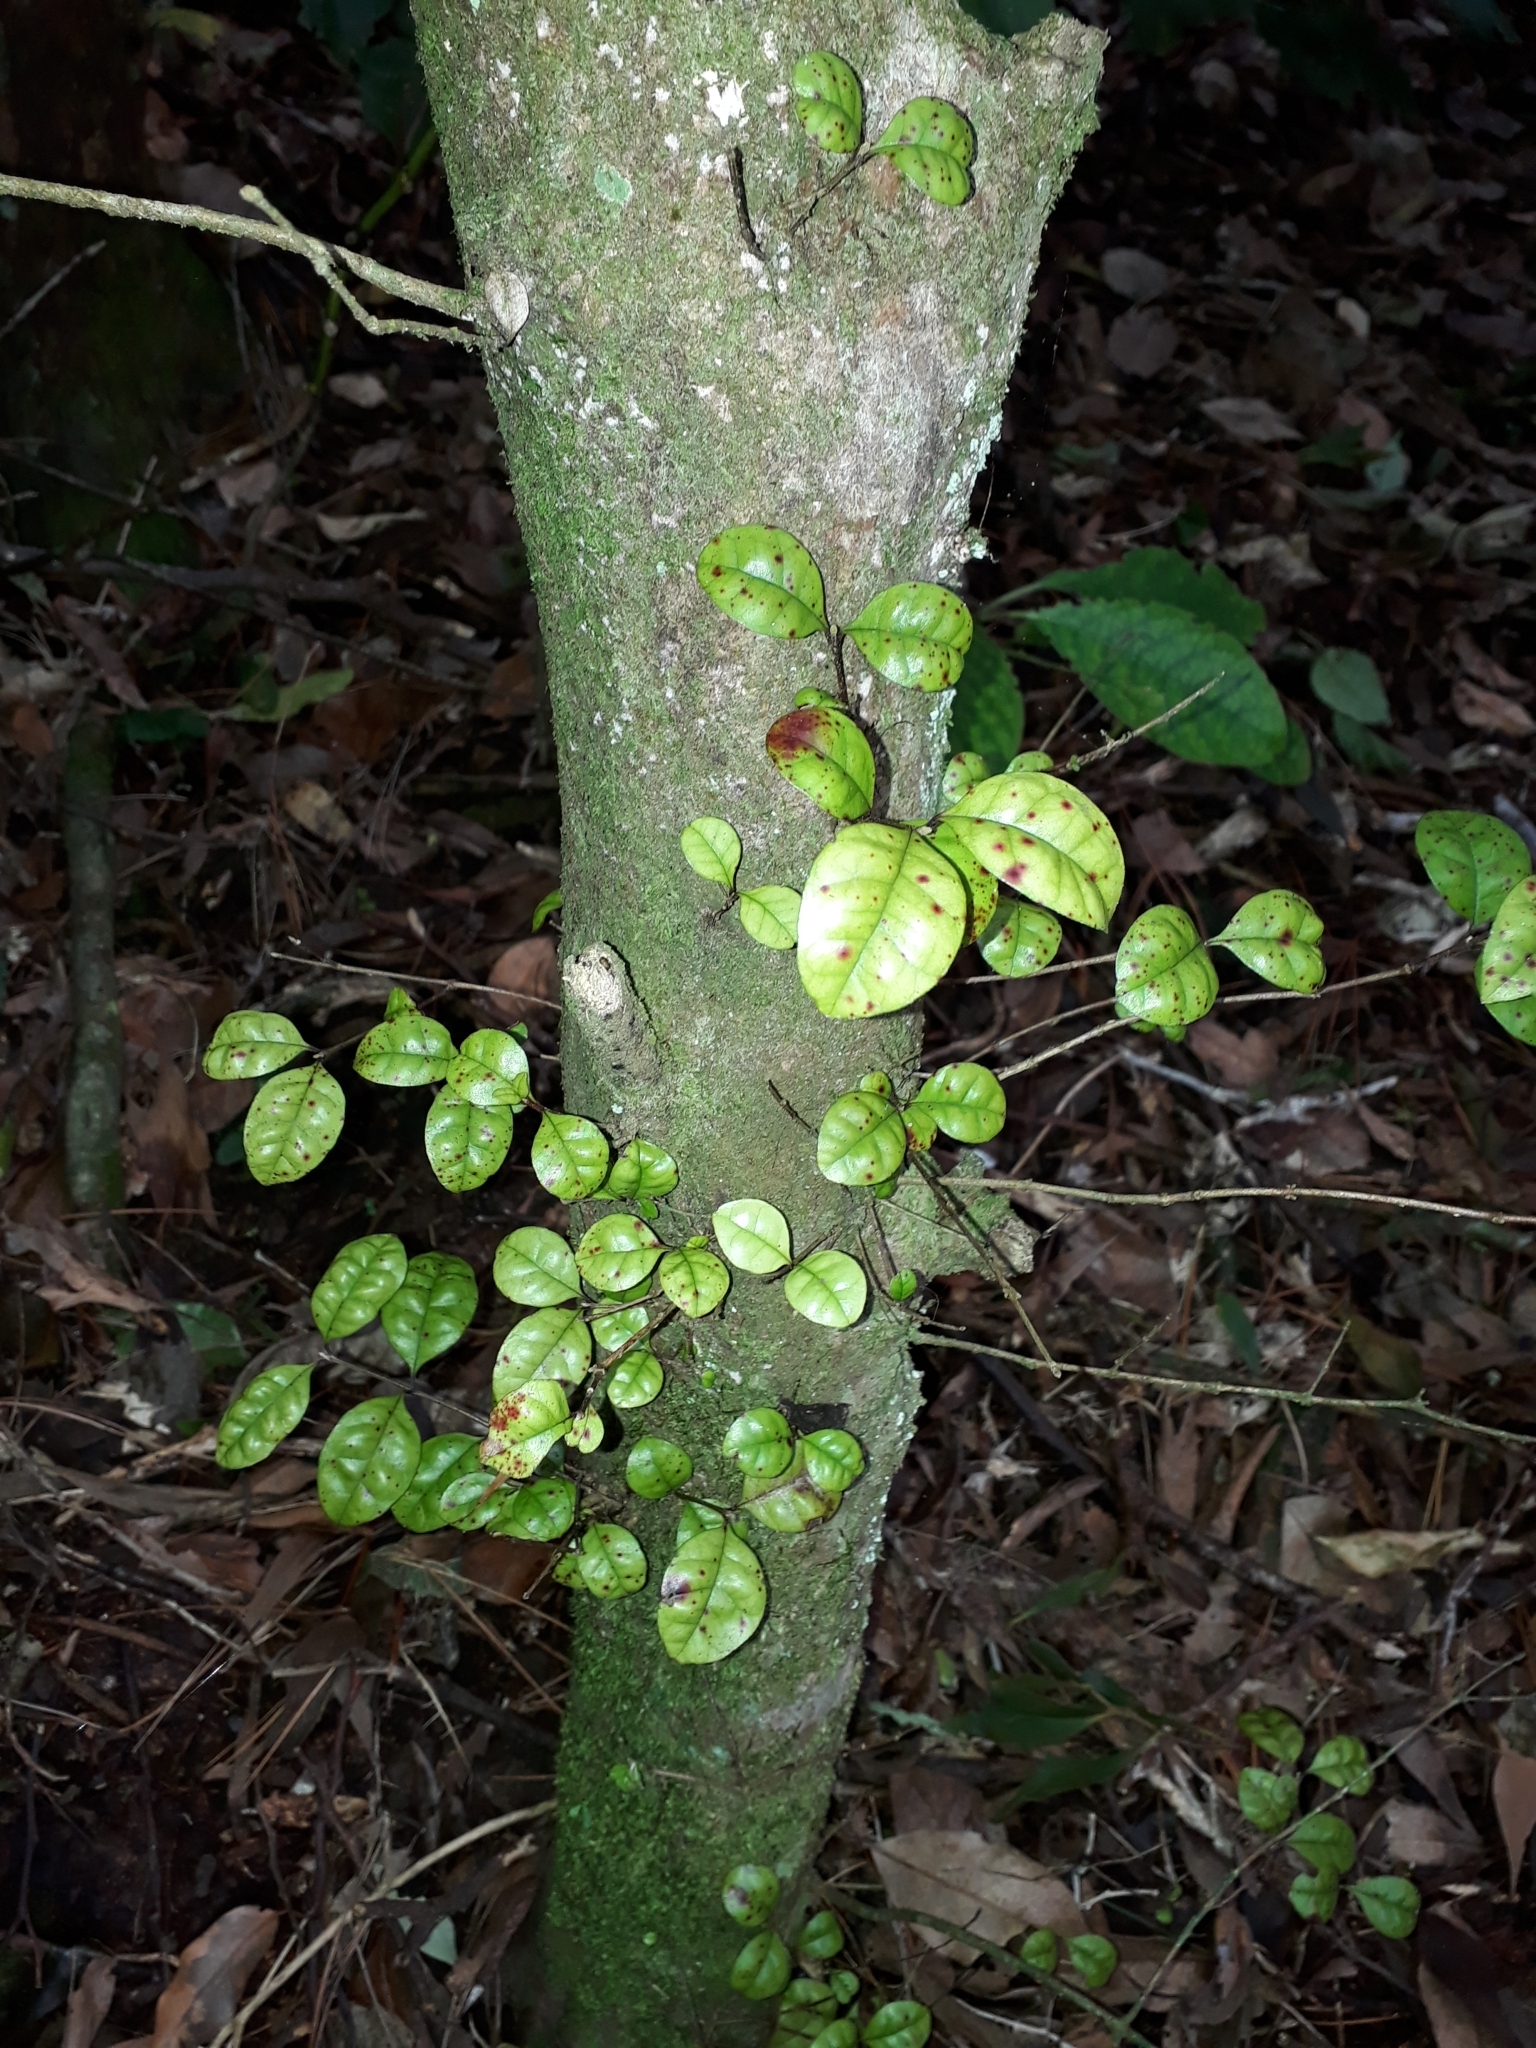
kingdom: Plantae
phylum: Tracheophyta
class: Magnoliopsida
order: Myrtales
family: Myrtaceae
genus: Lophomyrtus
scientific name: Lophomyrtus bullata
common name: Rama rama
